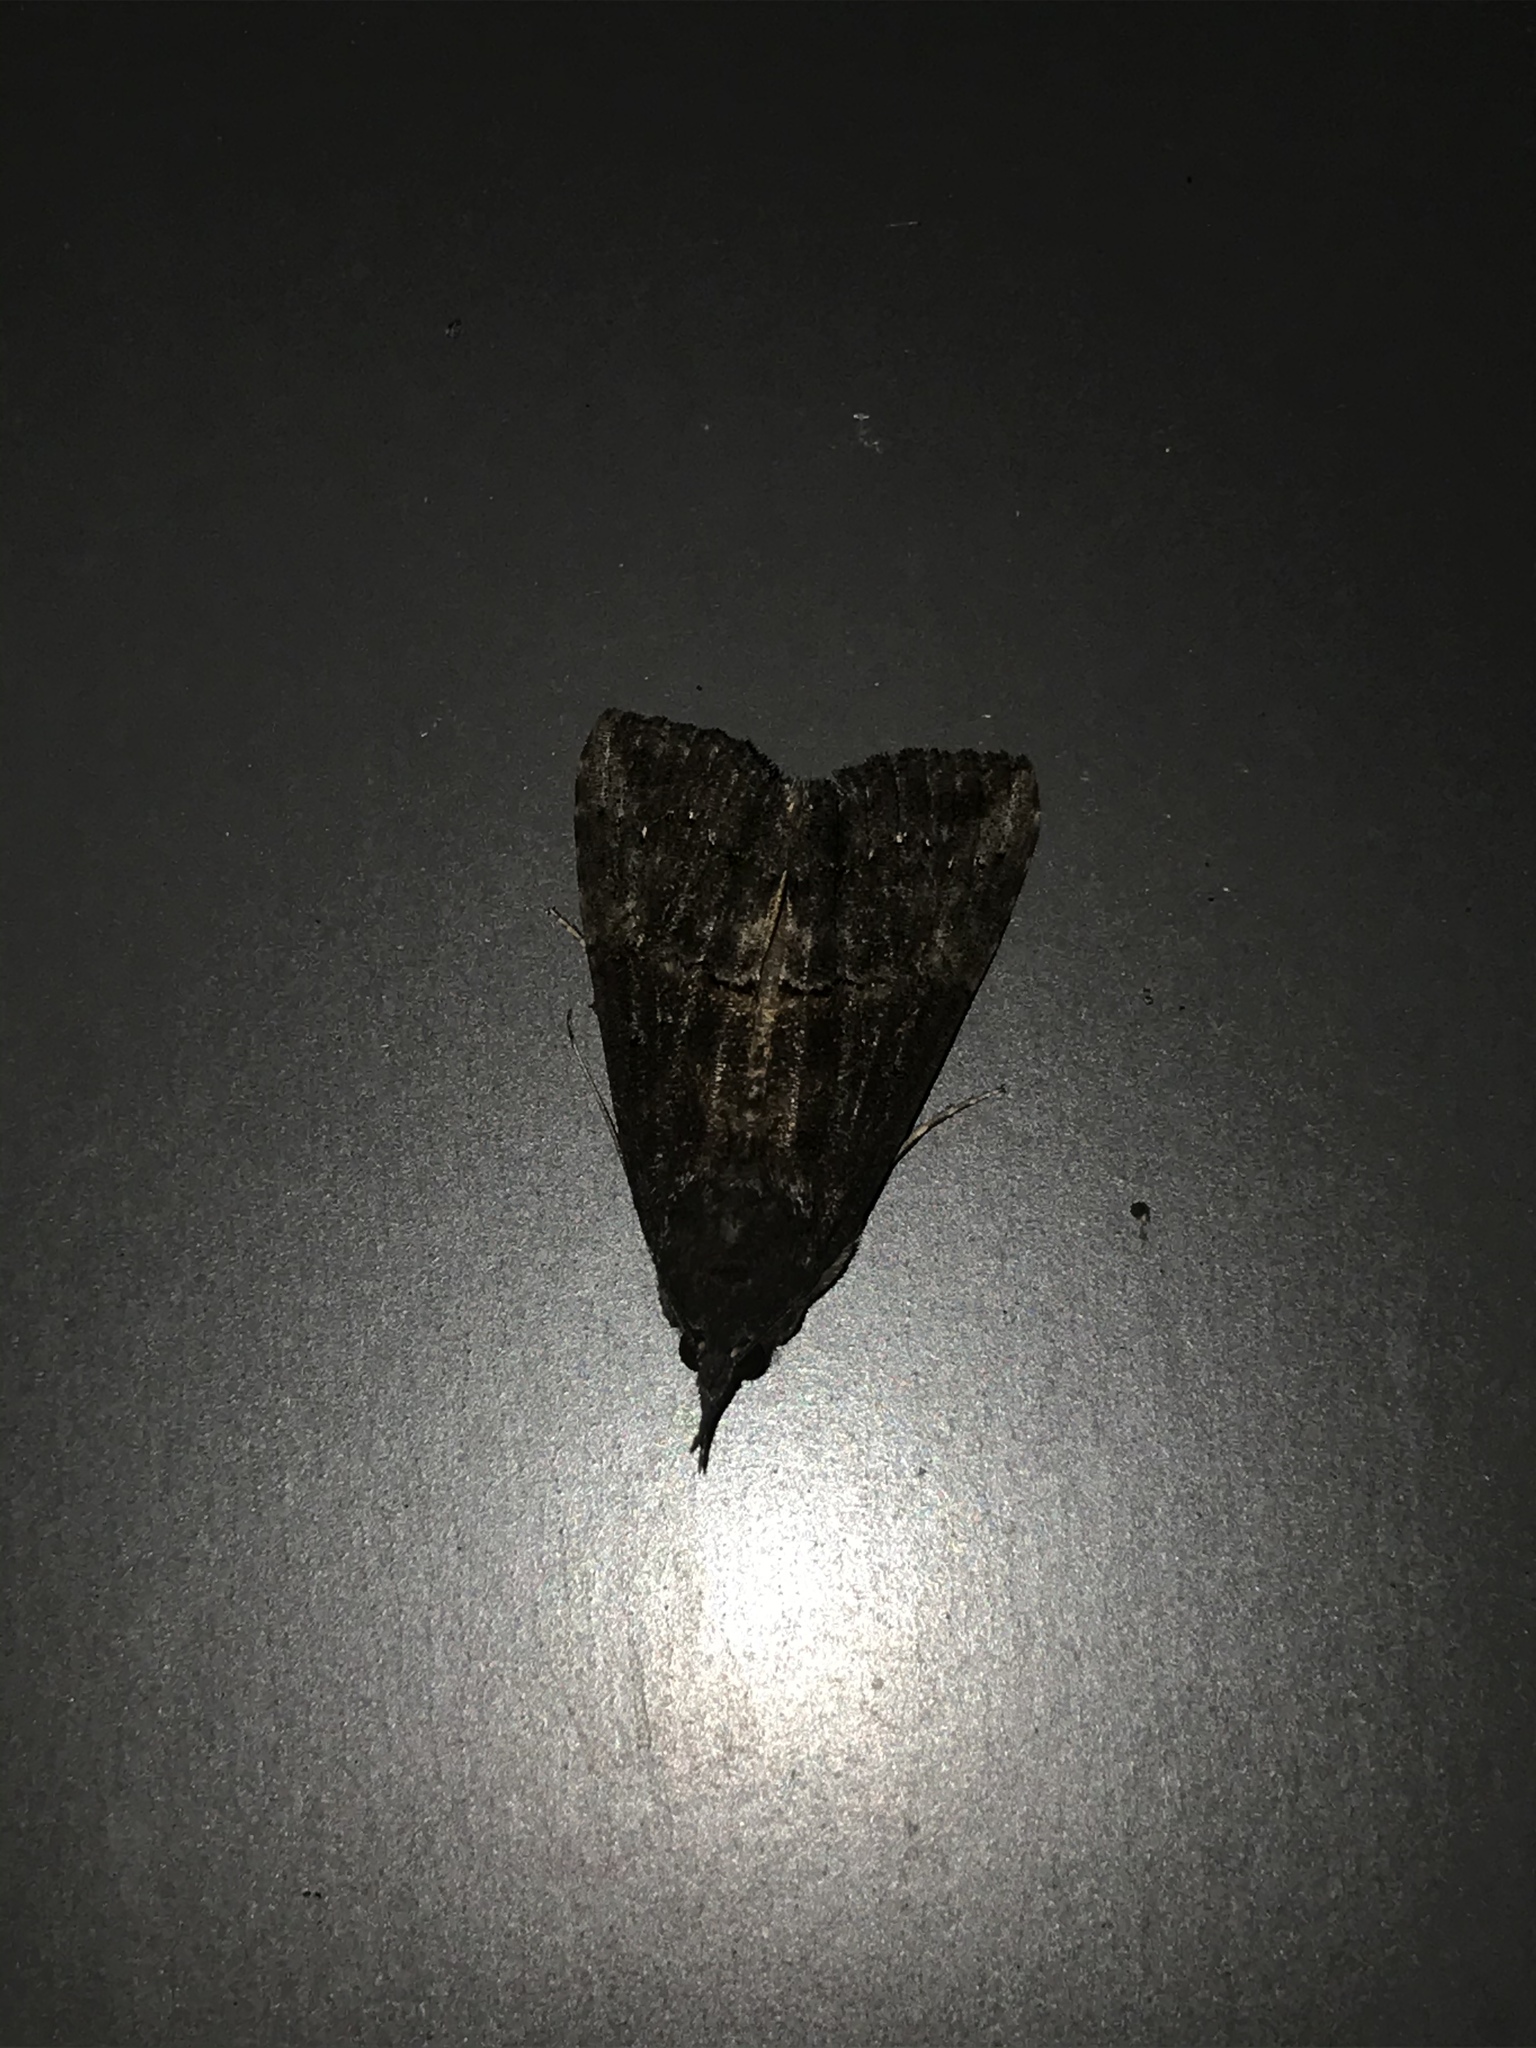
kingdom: Animalia
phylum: Arthropoda
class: Insecta
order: Lepidoptera
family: Erebidae
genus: Hypena
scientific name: Hypena scabra
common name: Green cloverworm
